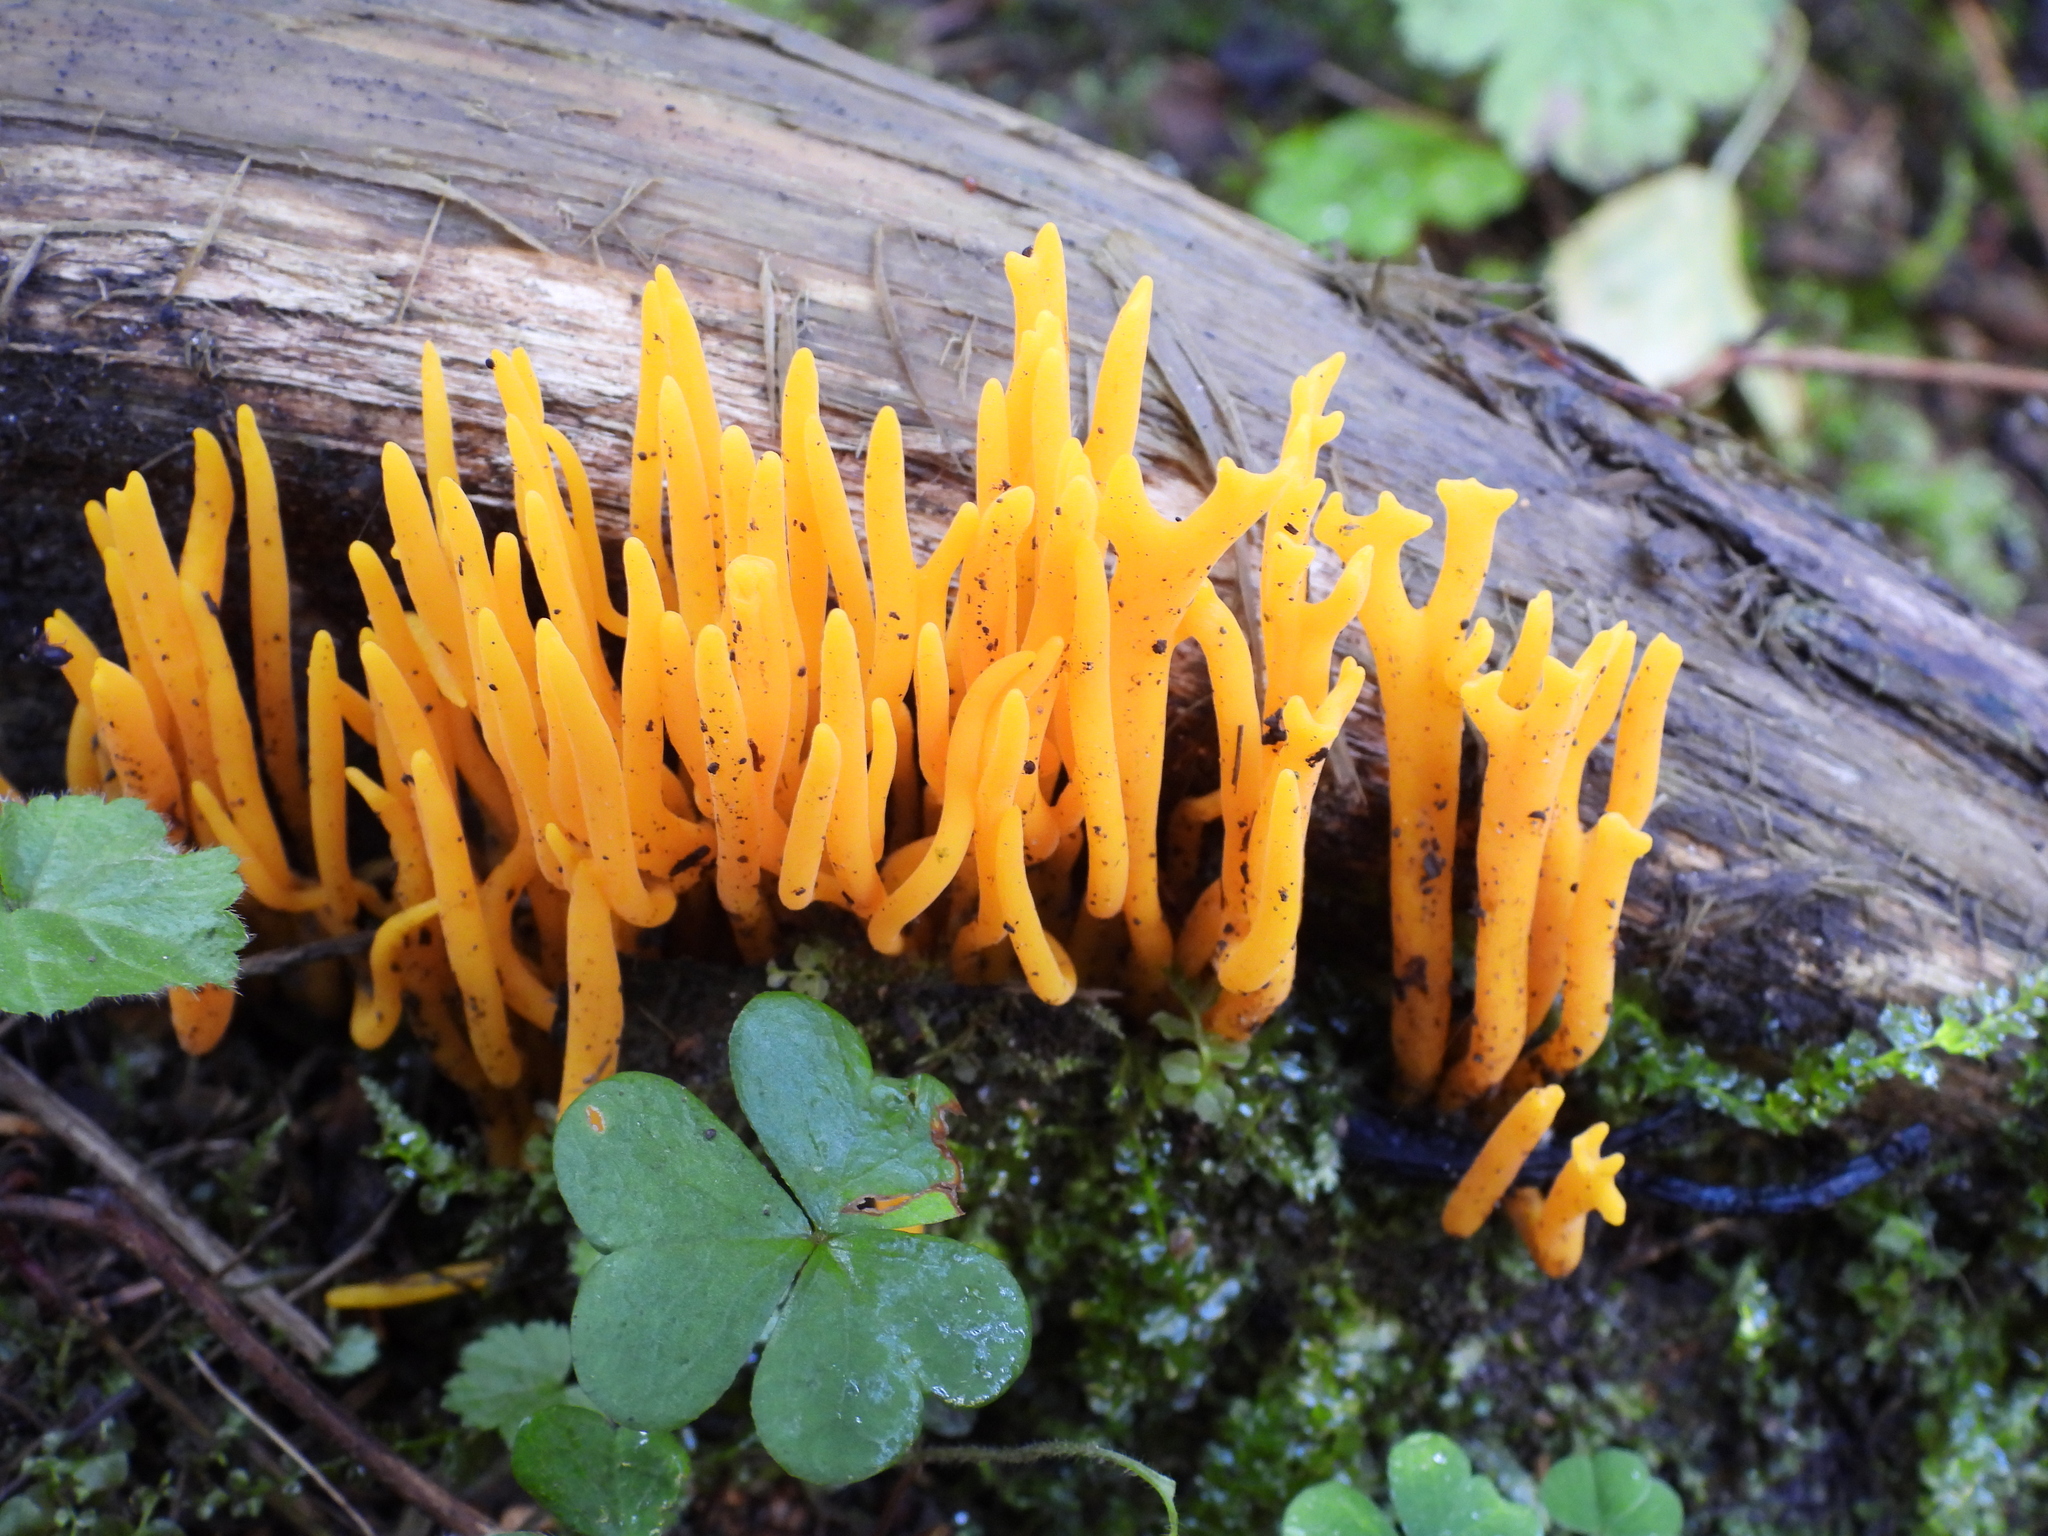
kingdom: Fungi
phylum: Basidiomycota
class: Dacrymycetes
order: Dacrymycetales
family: Dacrymycetaceae
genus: Calocera
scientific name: Calocera viscosa
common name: Yellow stagshorn
